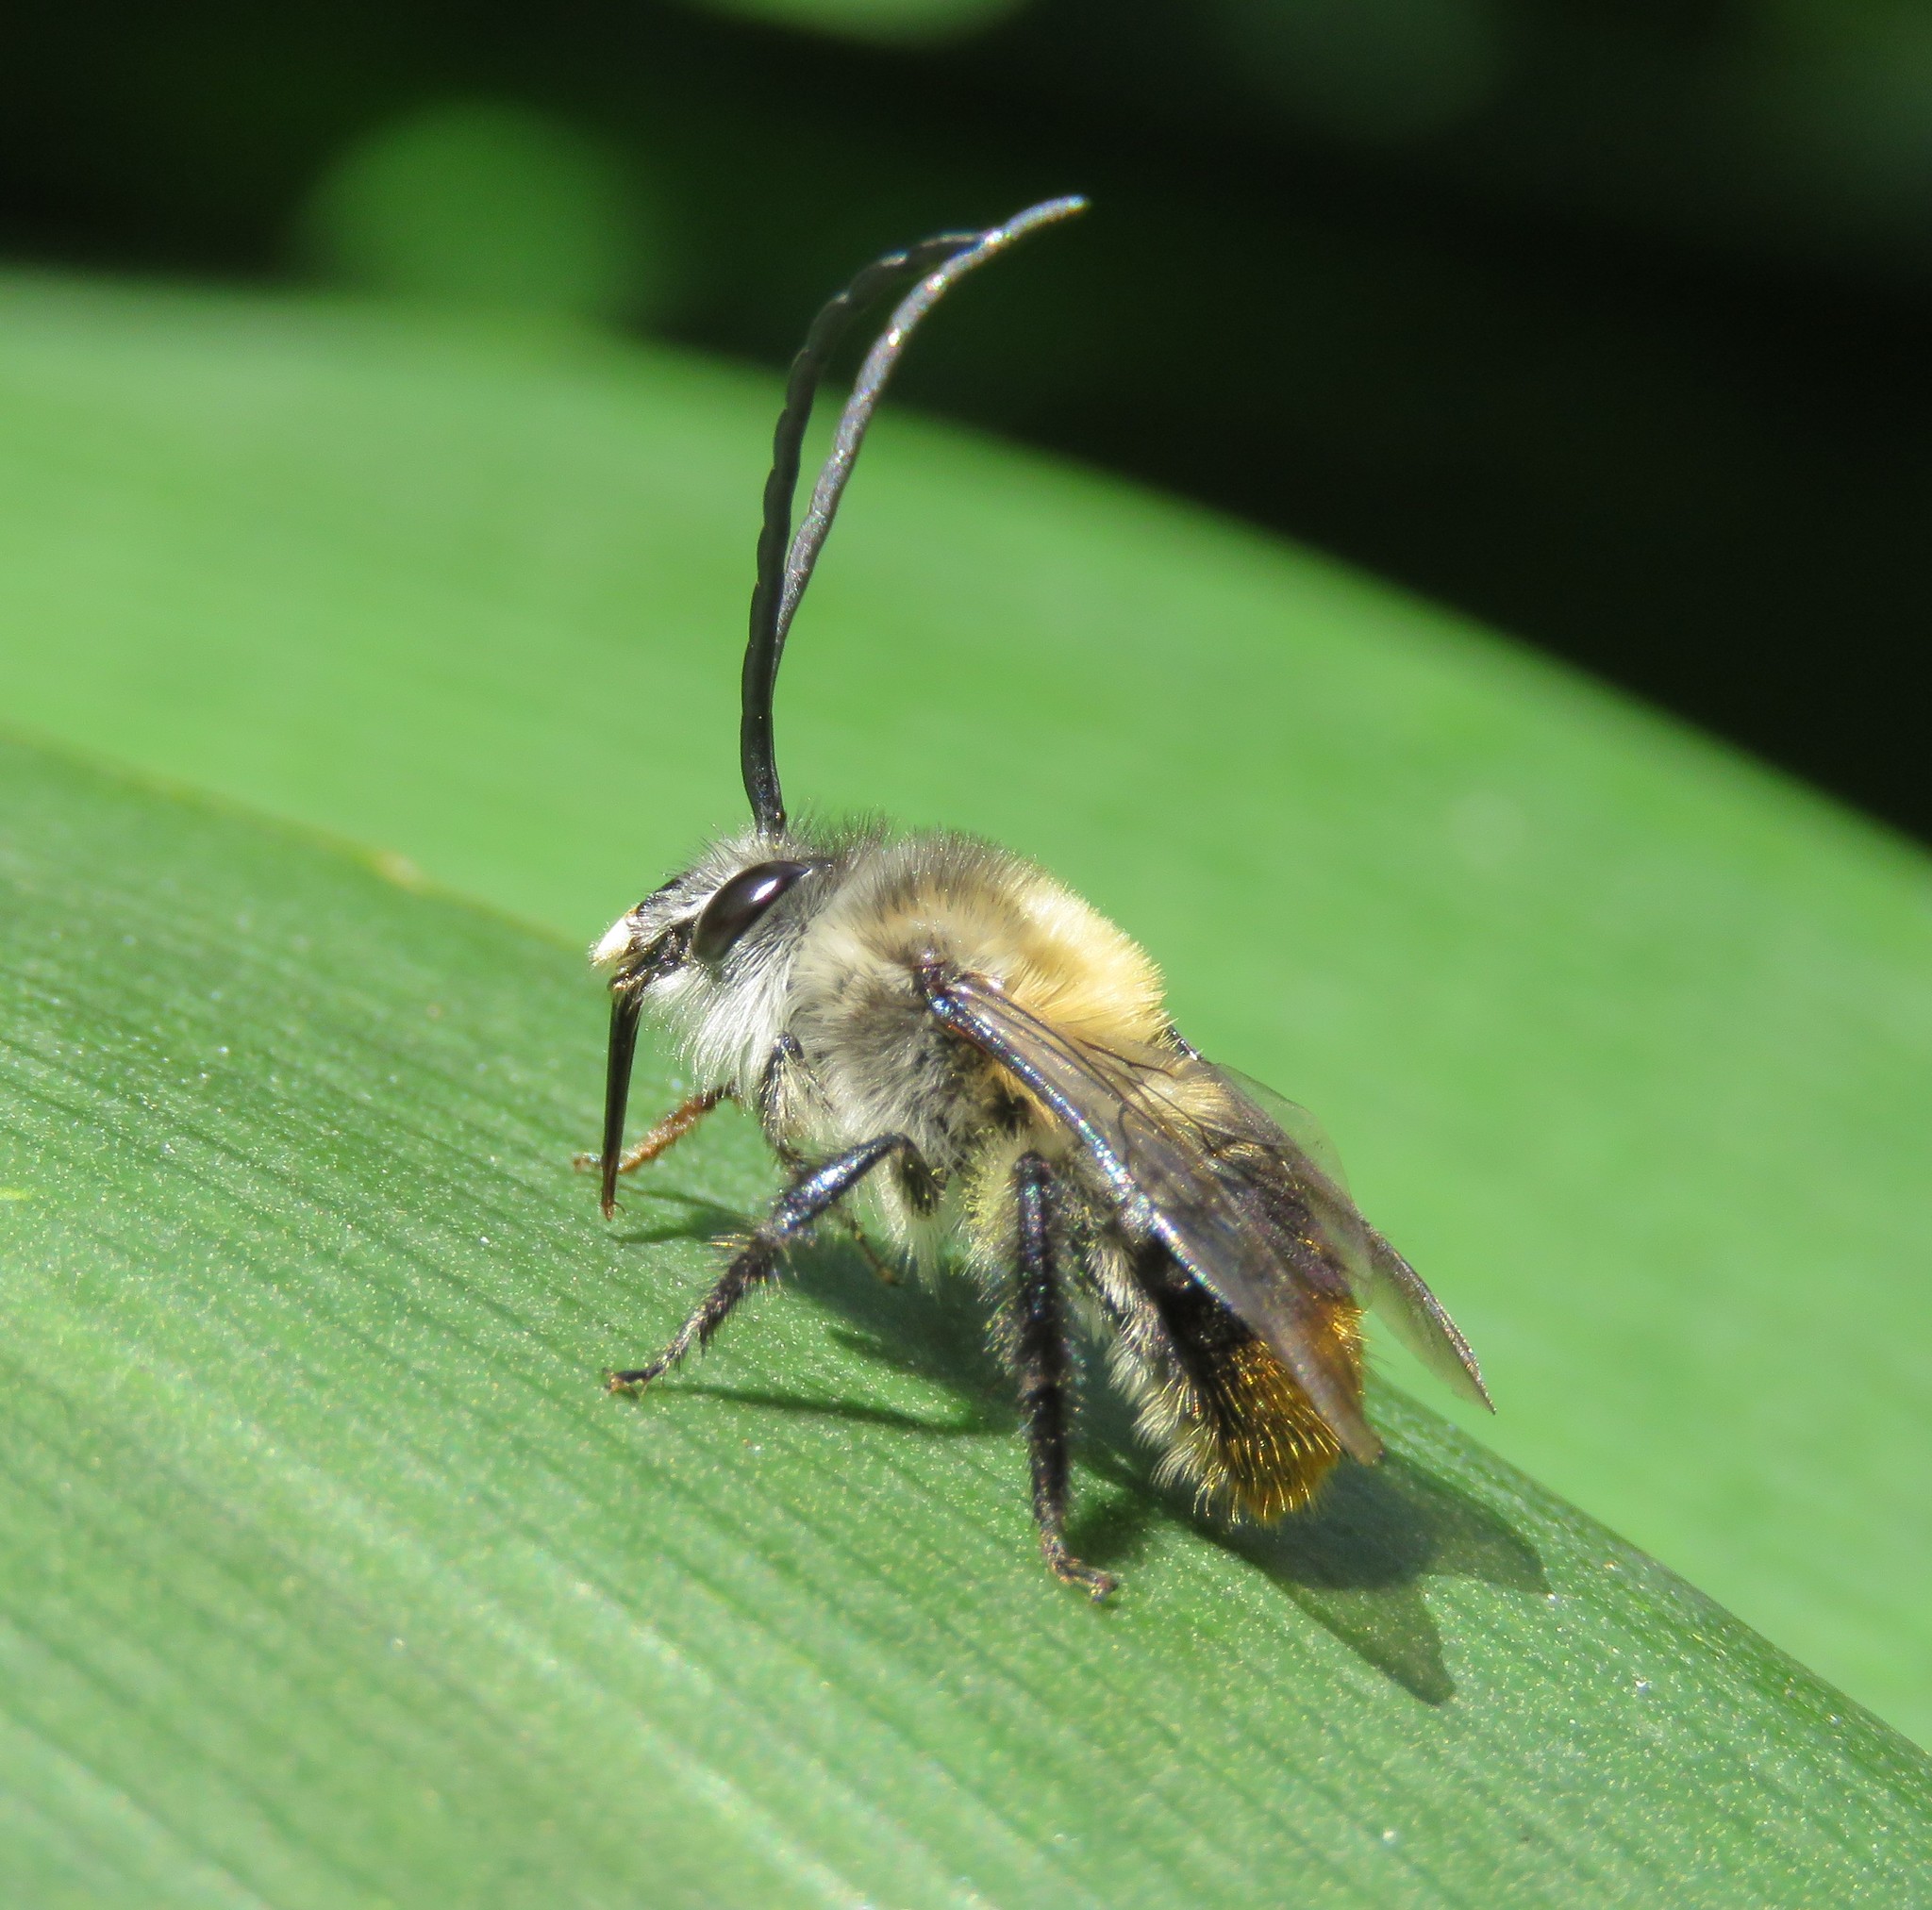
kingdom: Animalia
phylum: Arthropoda
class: Insecta
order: Hymenoptera
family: Apidae
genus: Thygater
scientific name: Thygater aethiops
